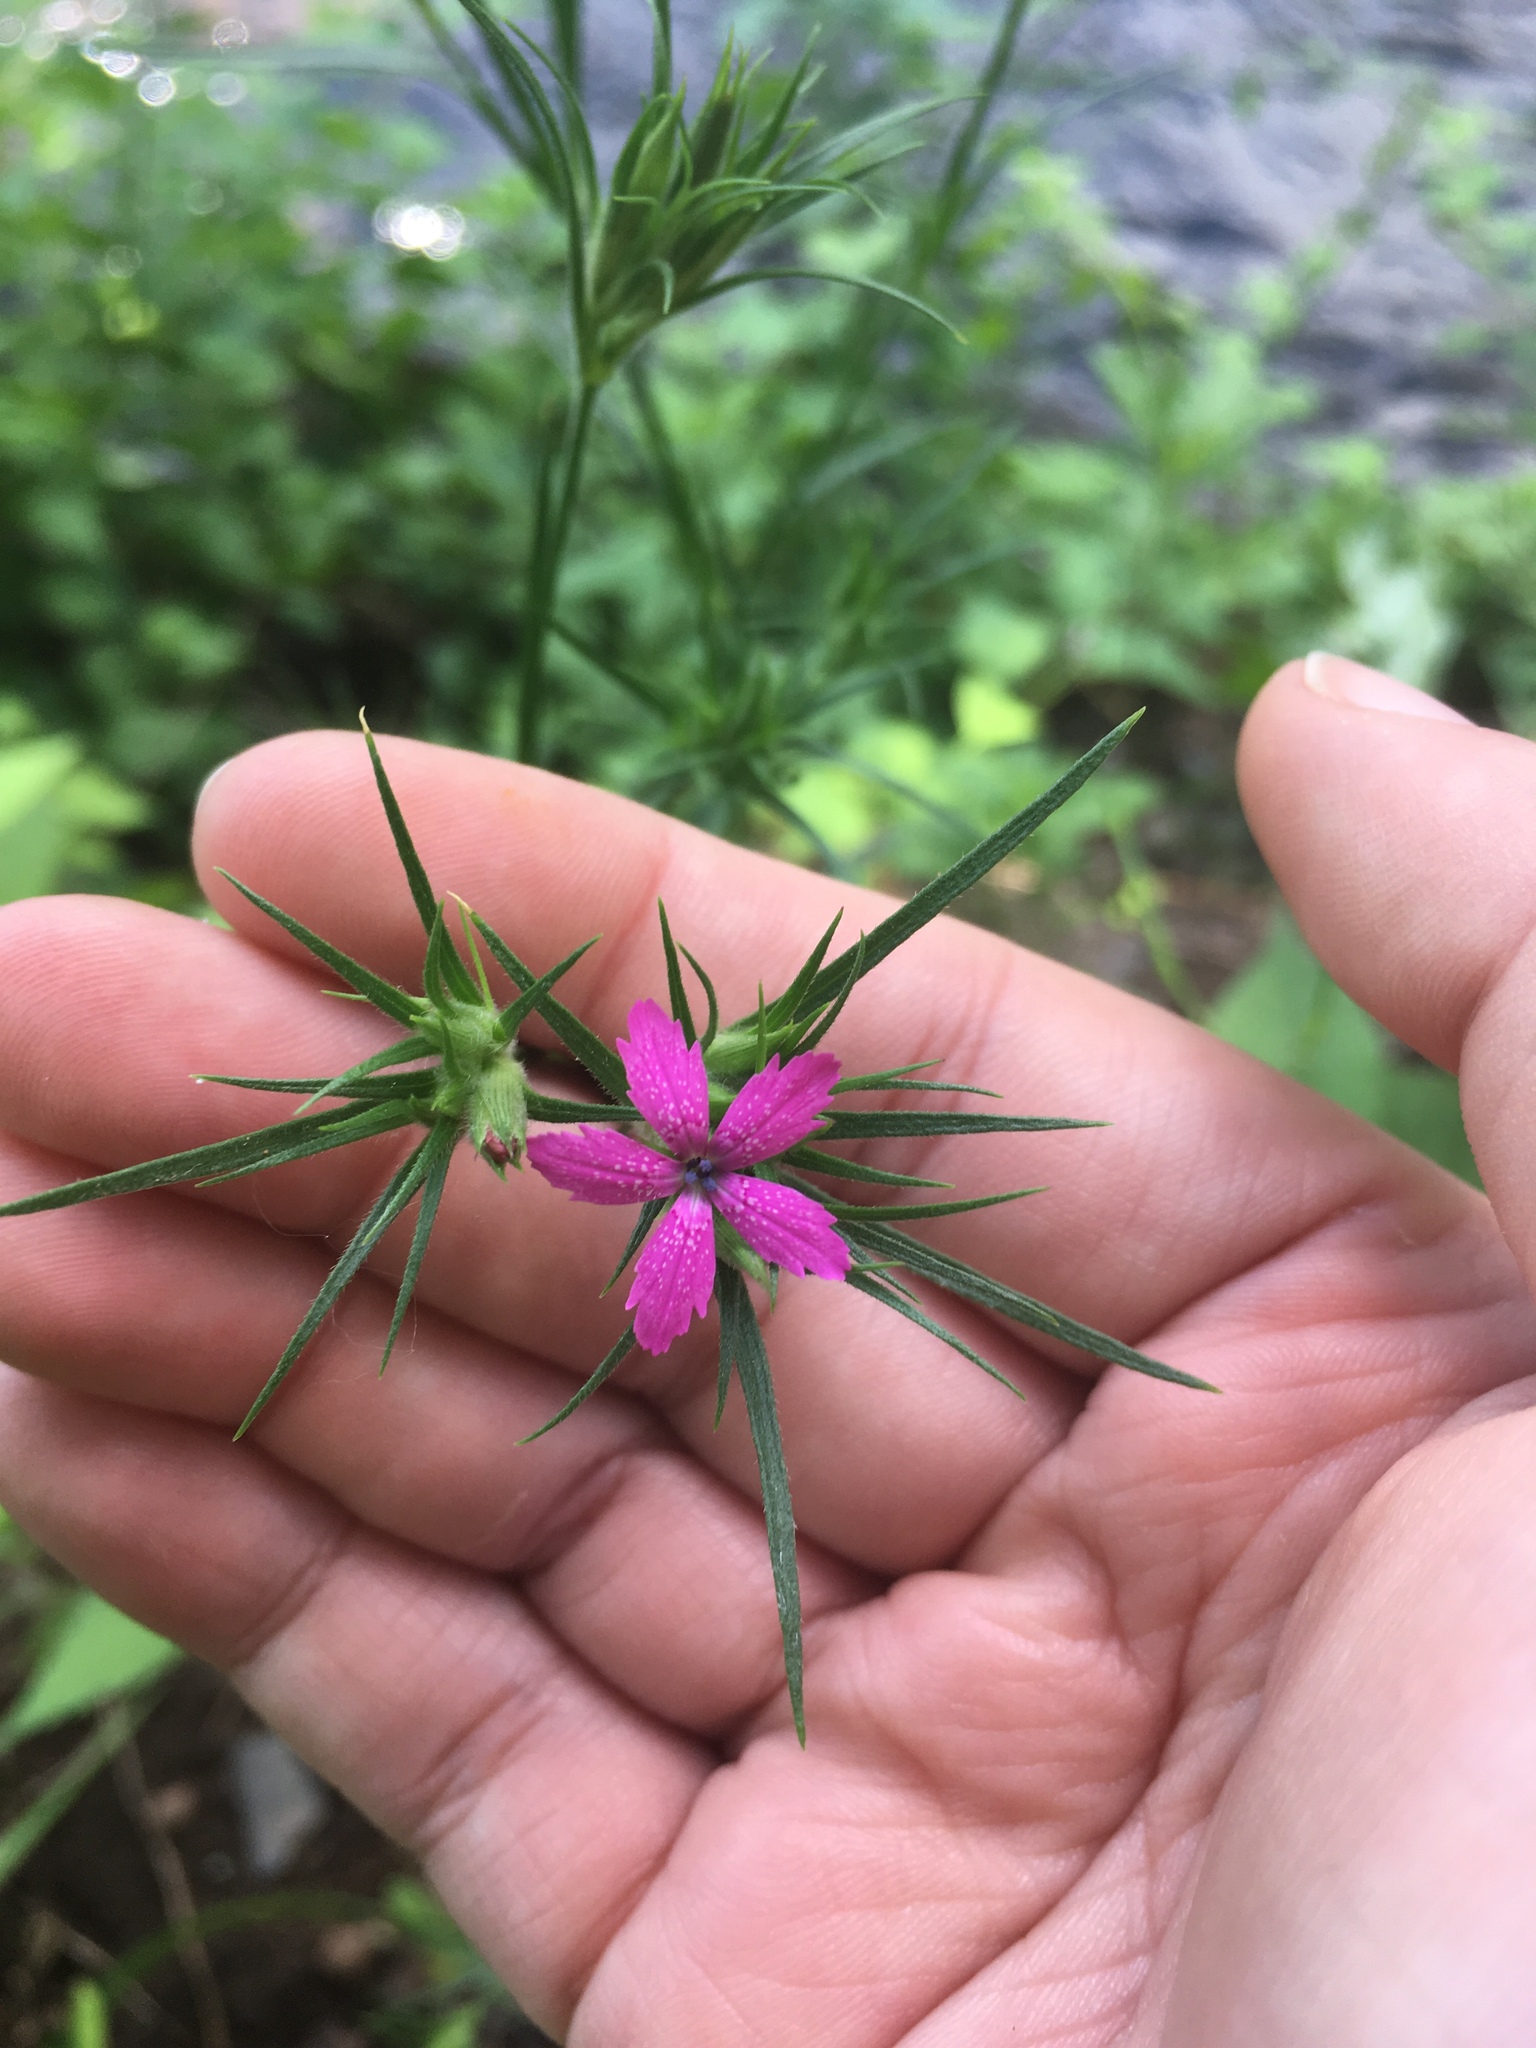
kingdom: Plantae
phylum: Tracheophyta
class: Magnoliopsida
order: Caryophyllales
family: Caryophyllaceae
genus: Dianthus
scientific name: Dianthus armeria
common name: Deptford pink
